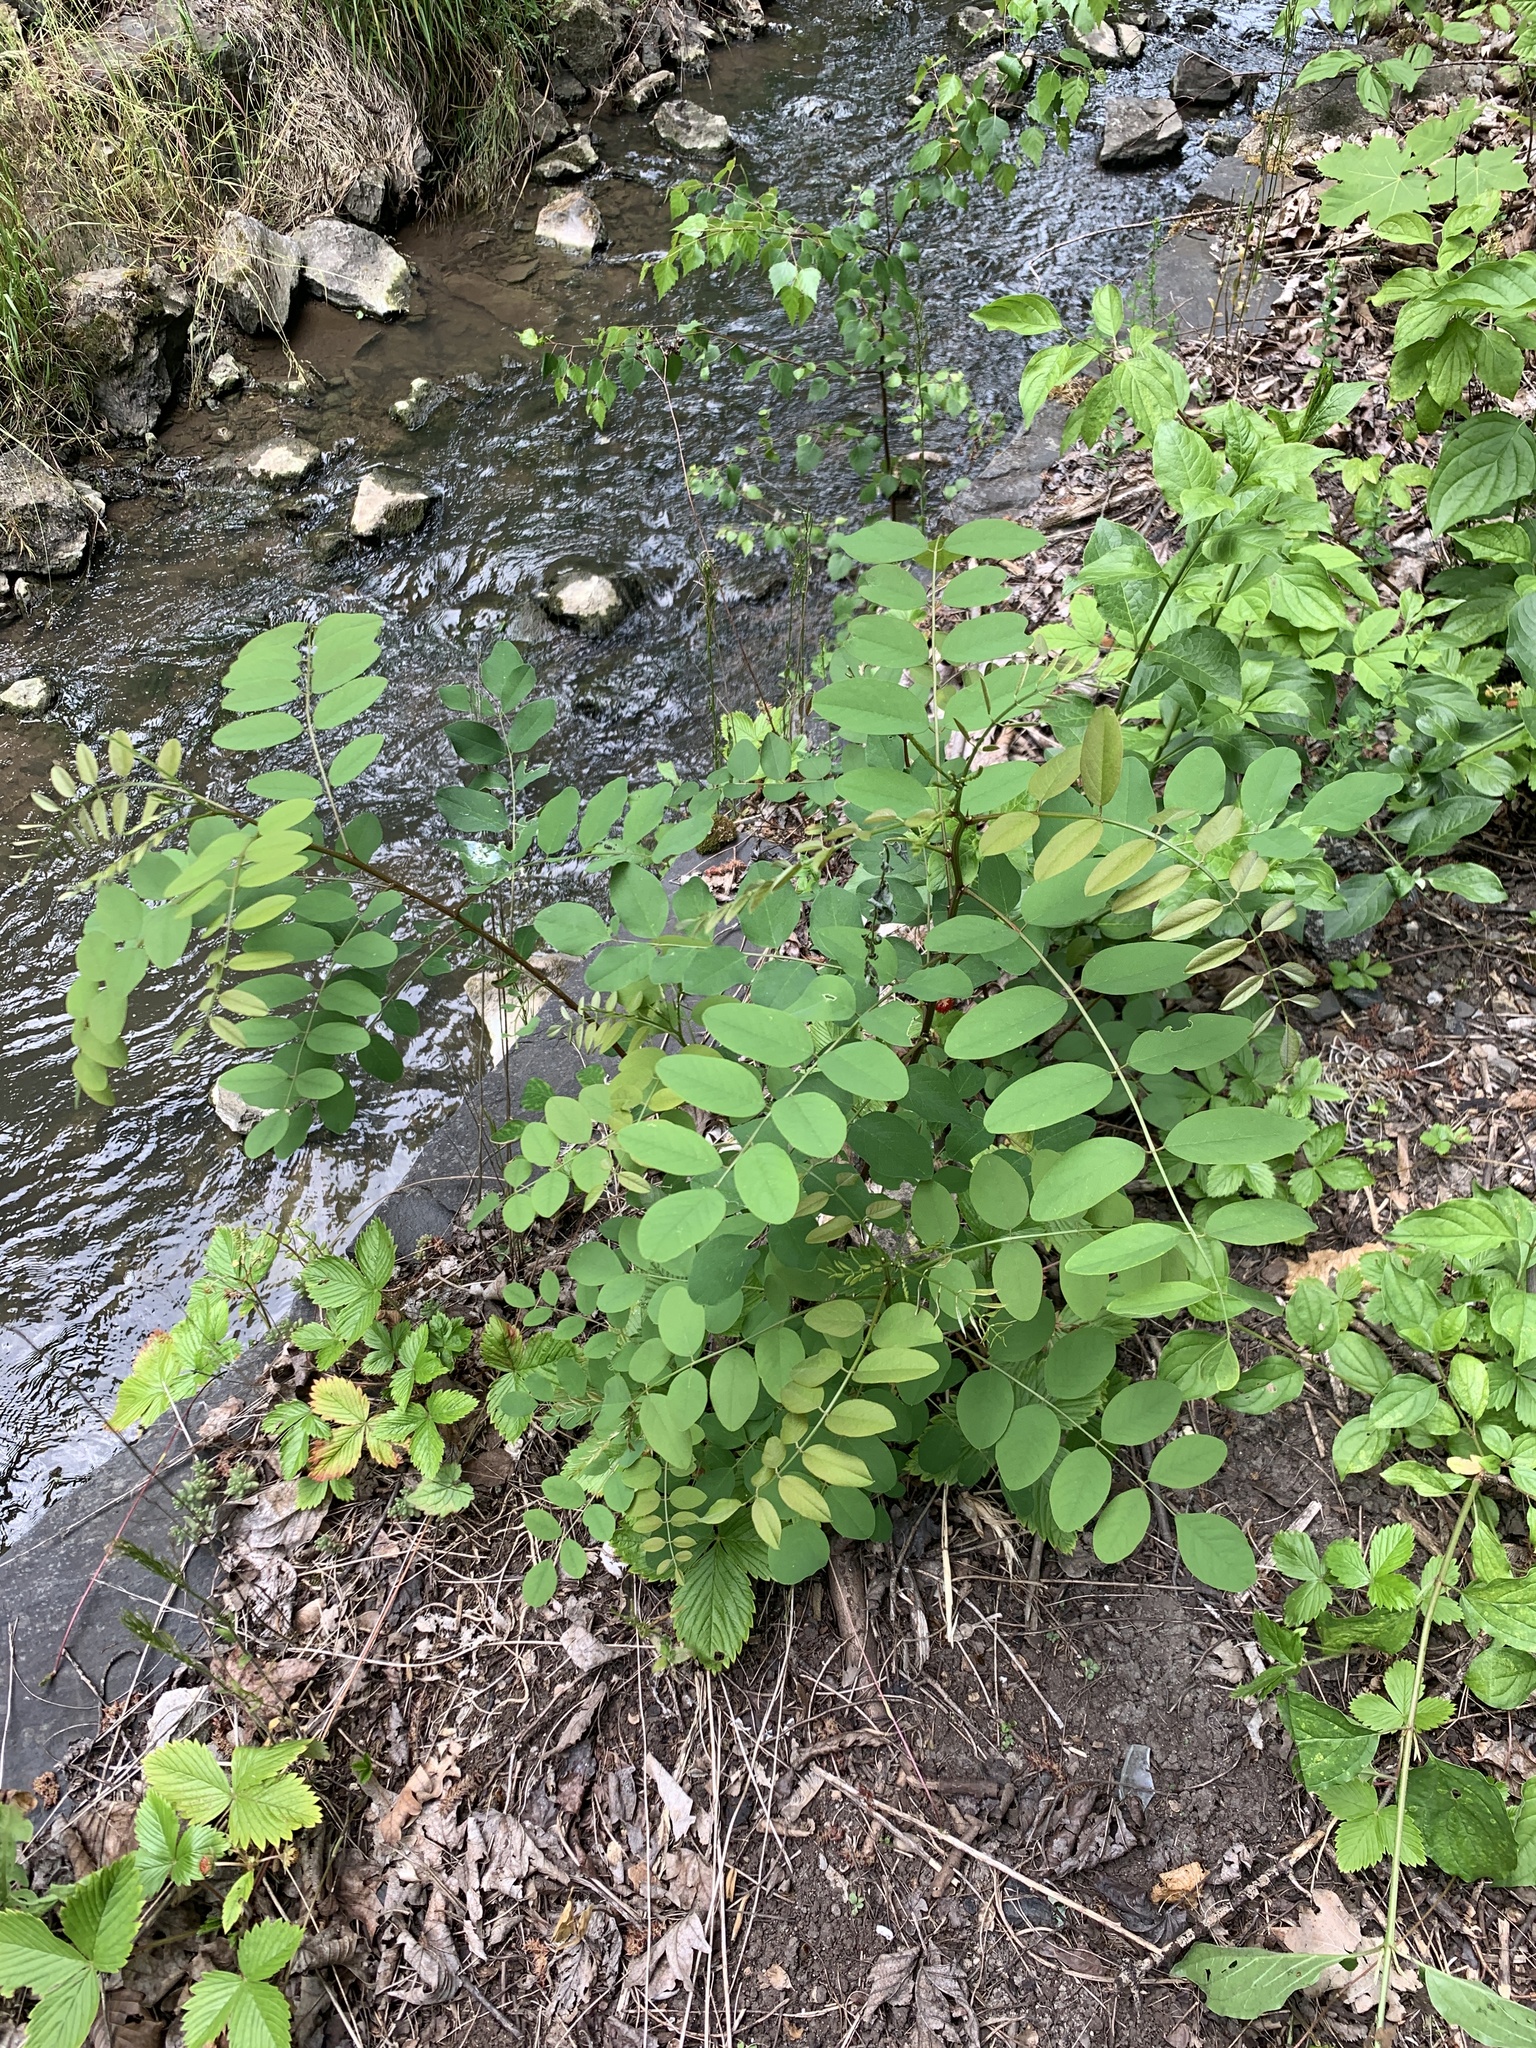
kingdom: Plantae
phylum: Tracheophyta
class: Magnoliopsida
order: Fabales
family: Fabaceae
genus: Robinia
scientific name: Robinia pseudoacacia
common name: Black locust
